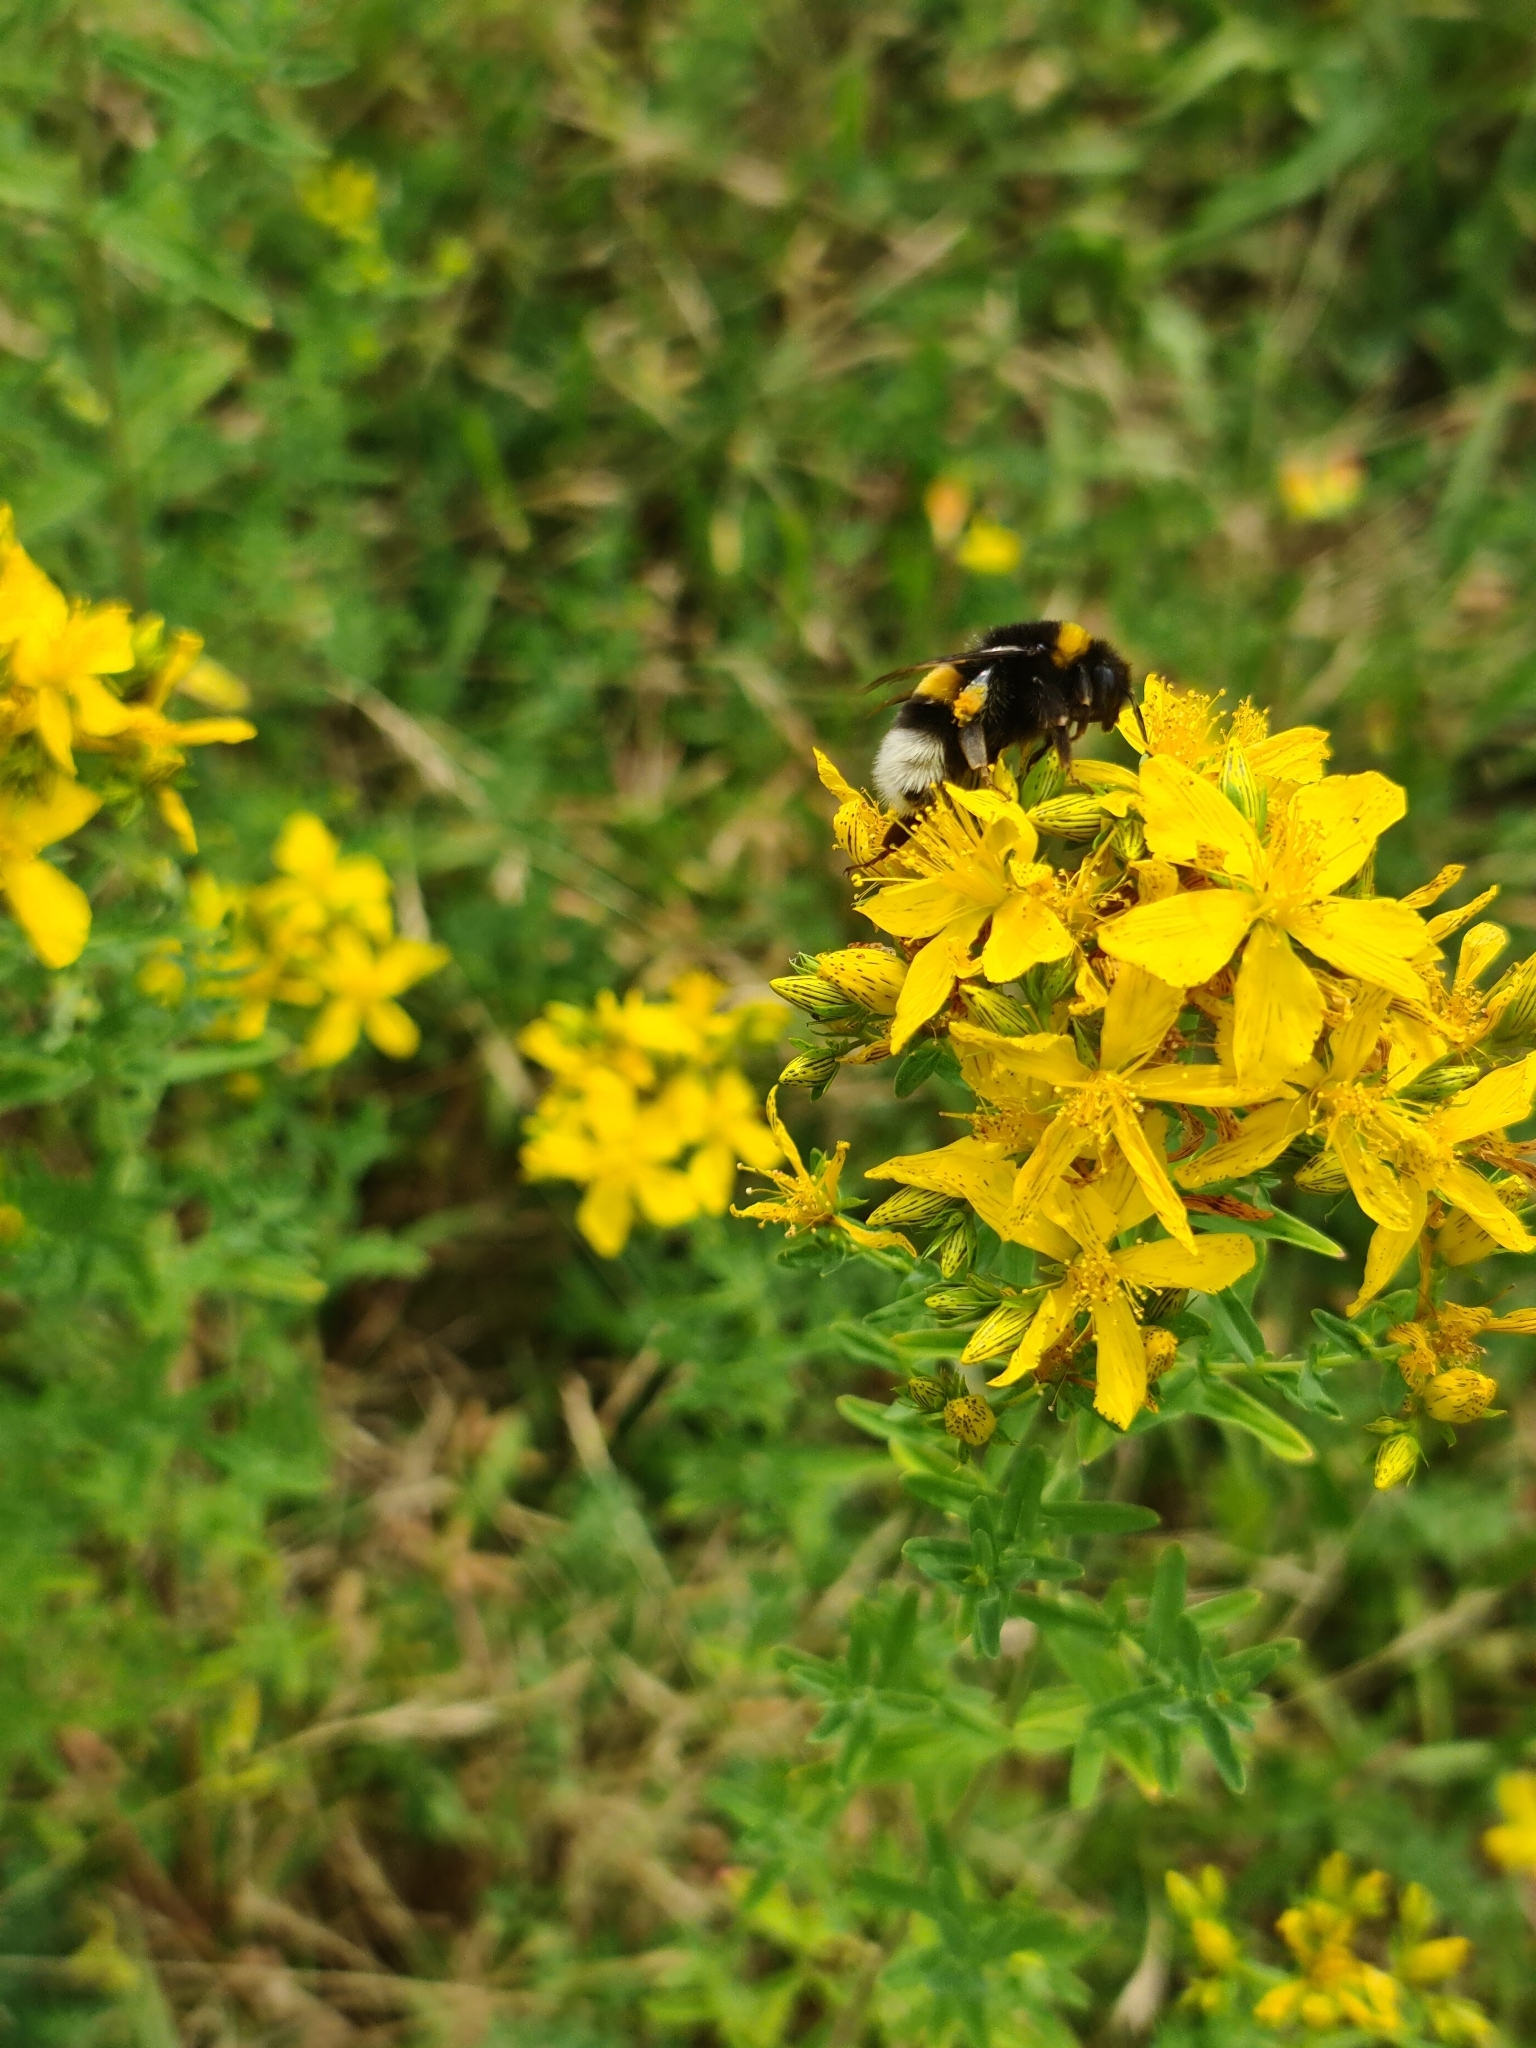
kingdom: Plantae
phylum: Tracheophyta
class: Magnoliopsida
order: Malpighiales
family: Hypericaceae
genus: Hypericum
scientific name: Hypericum perforatum
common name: Common st. johnswort
